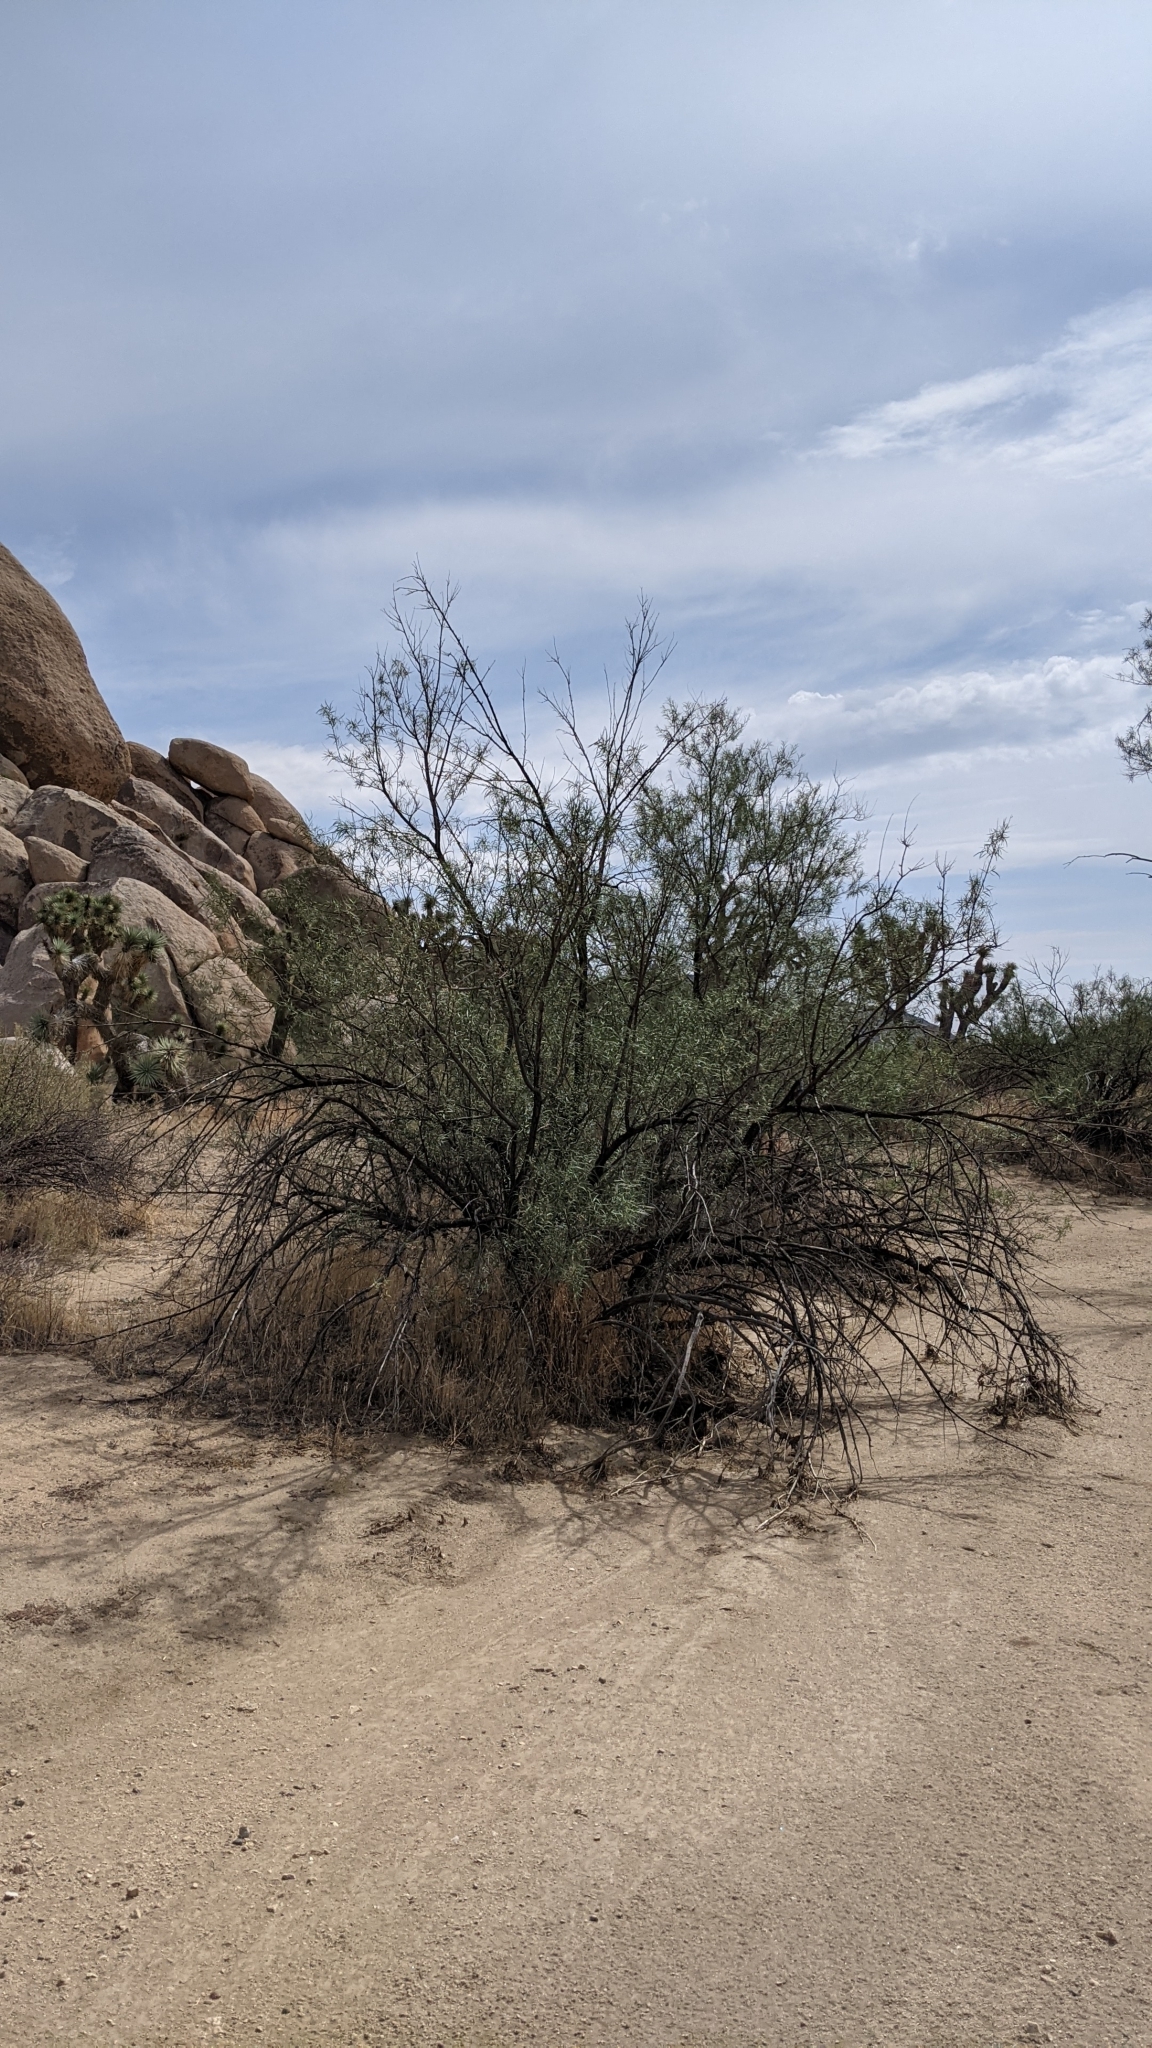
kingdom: Plantae
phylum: Tracheophyta
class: Magnoliopsida
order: Lamiales
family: Bignoniaceae
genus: Chilopsis
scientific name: Chilopsis linearis
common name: Desert-willow
